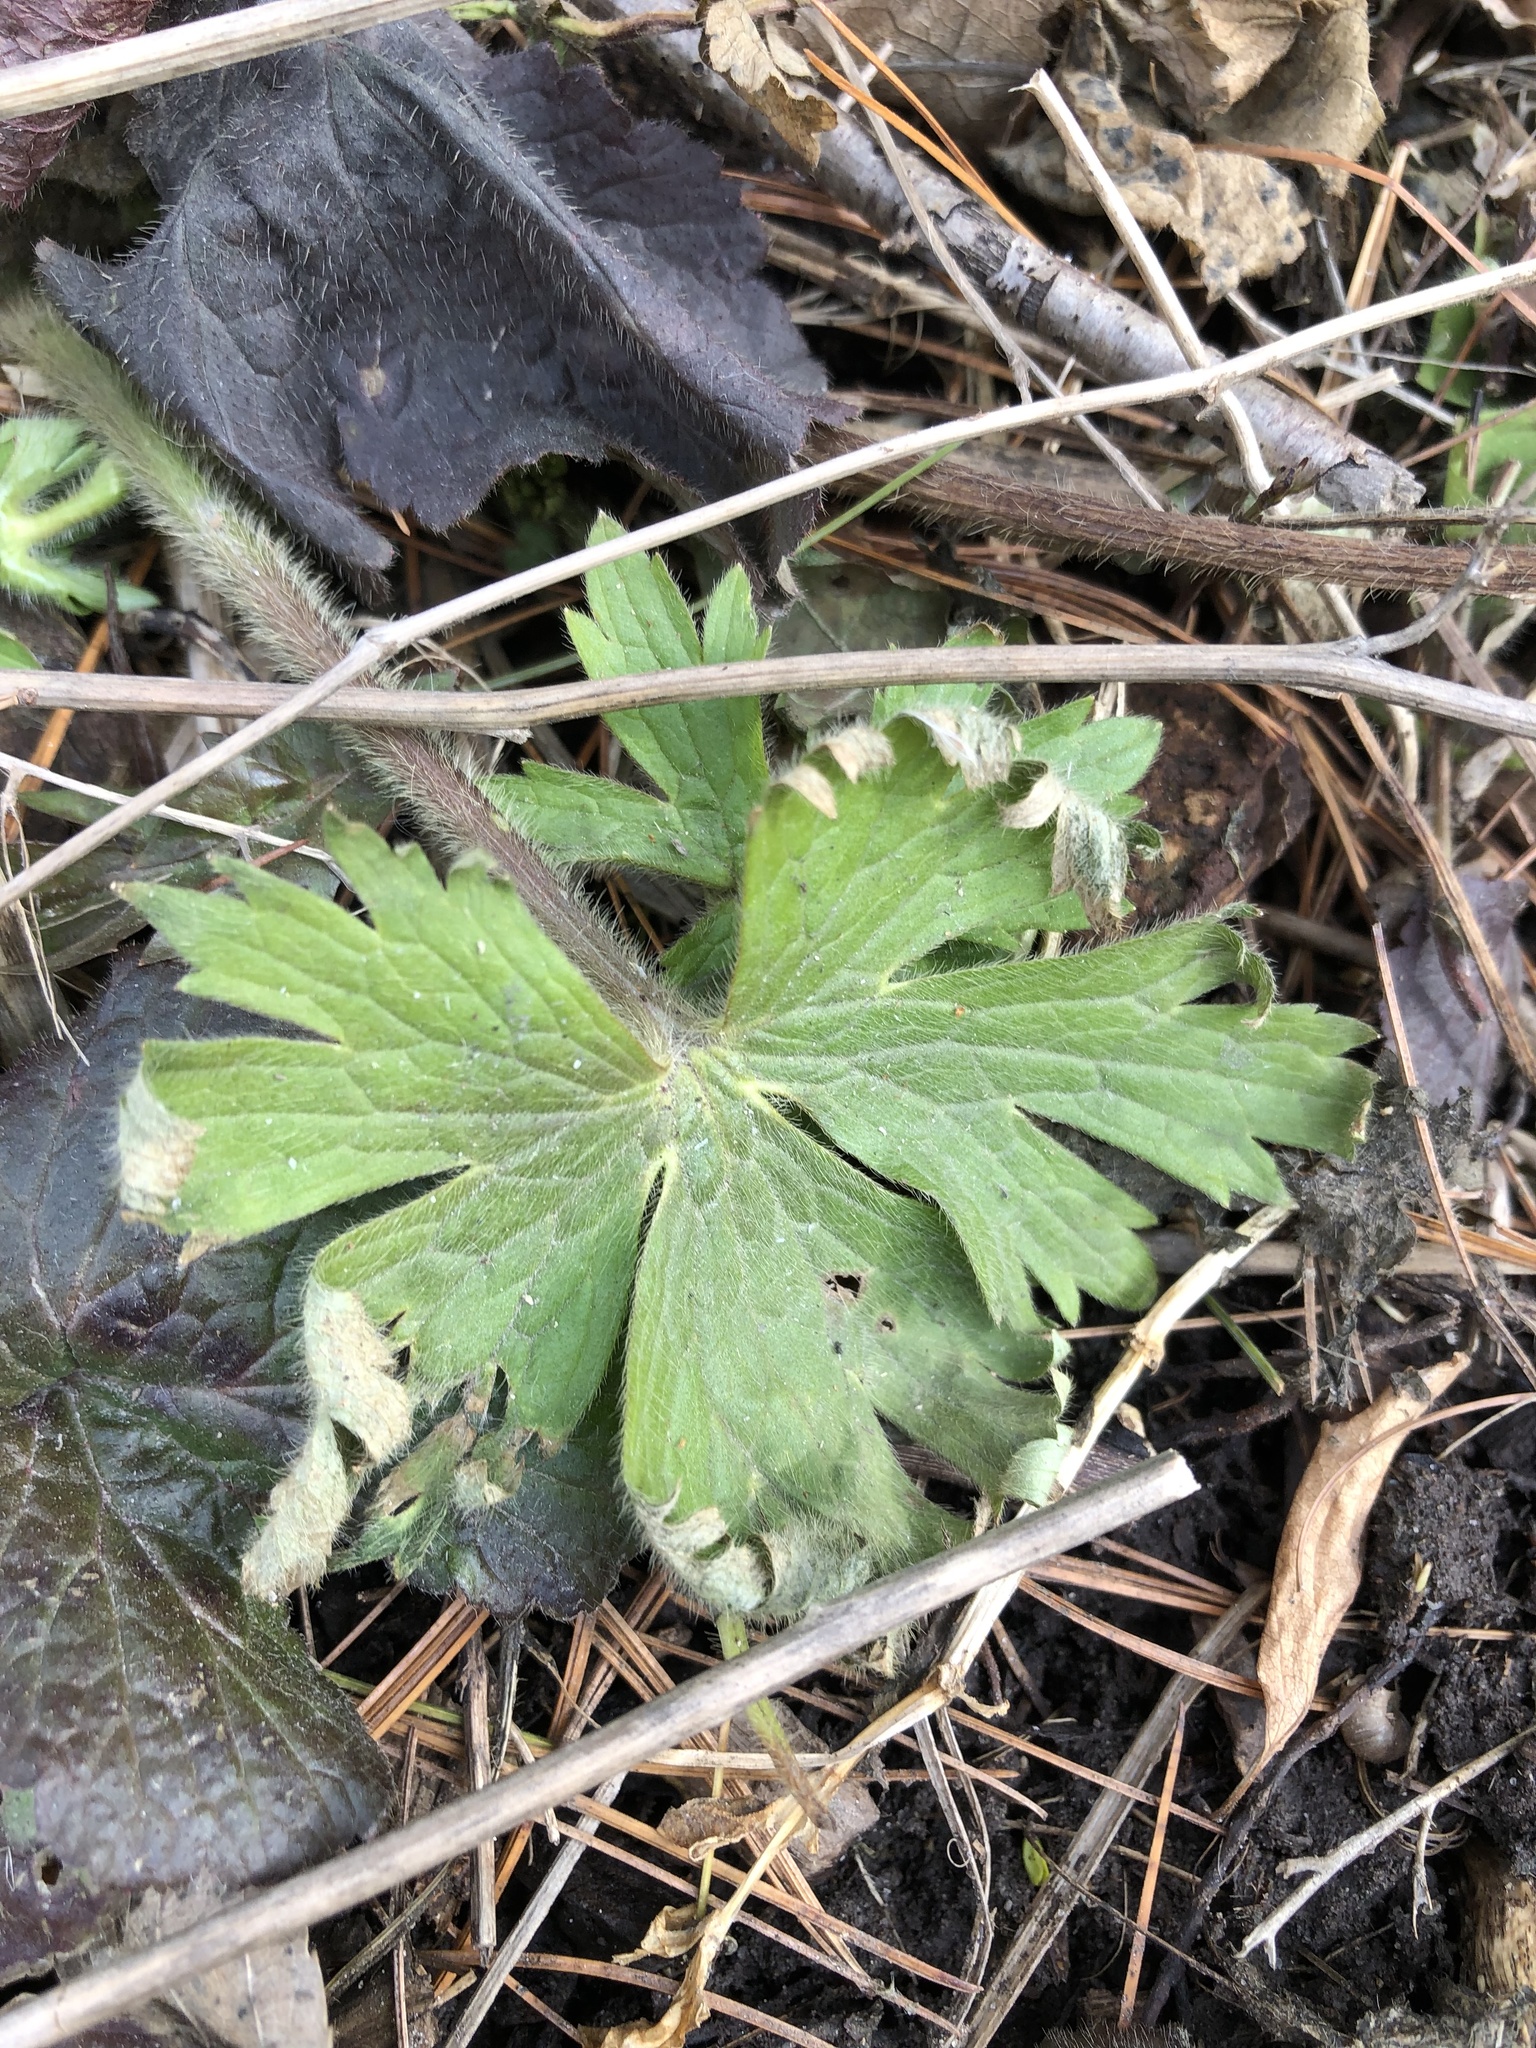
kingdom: Plantae
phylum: Tracheophyta
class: Magnoliopsida
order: Ranunculales
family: Ranunculaceae
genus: Anemonastrum
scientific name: Anemonastrum canadense
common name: Canada anemone
